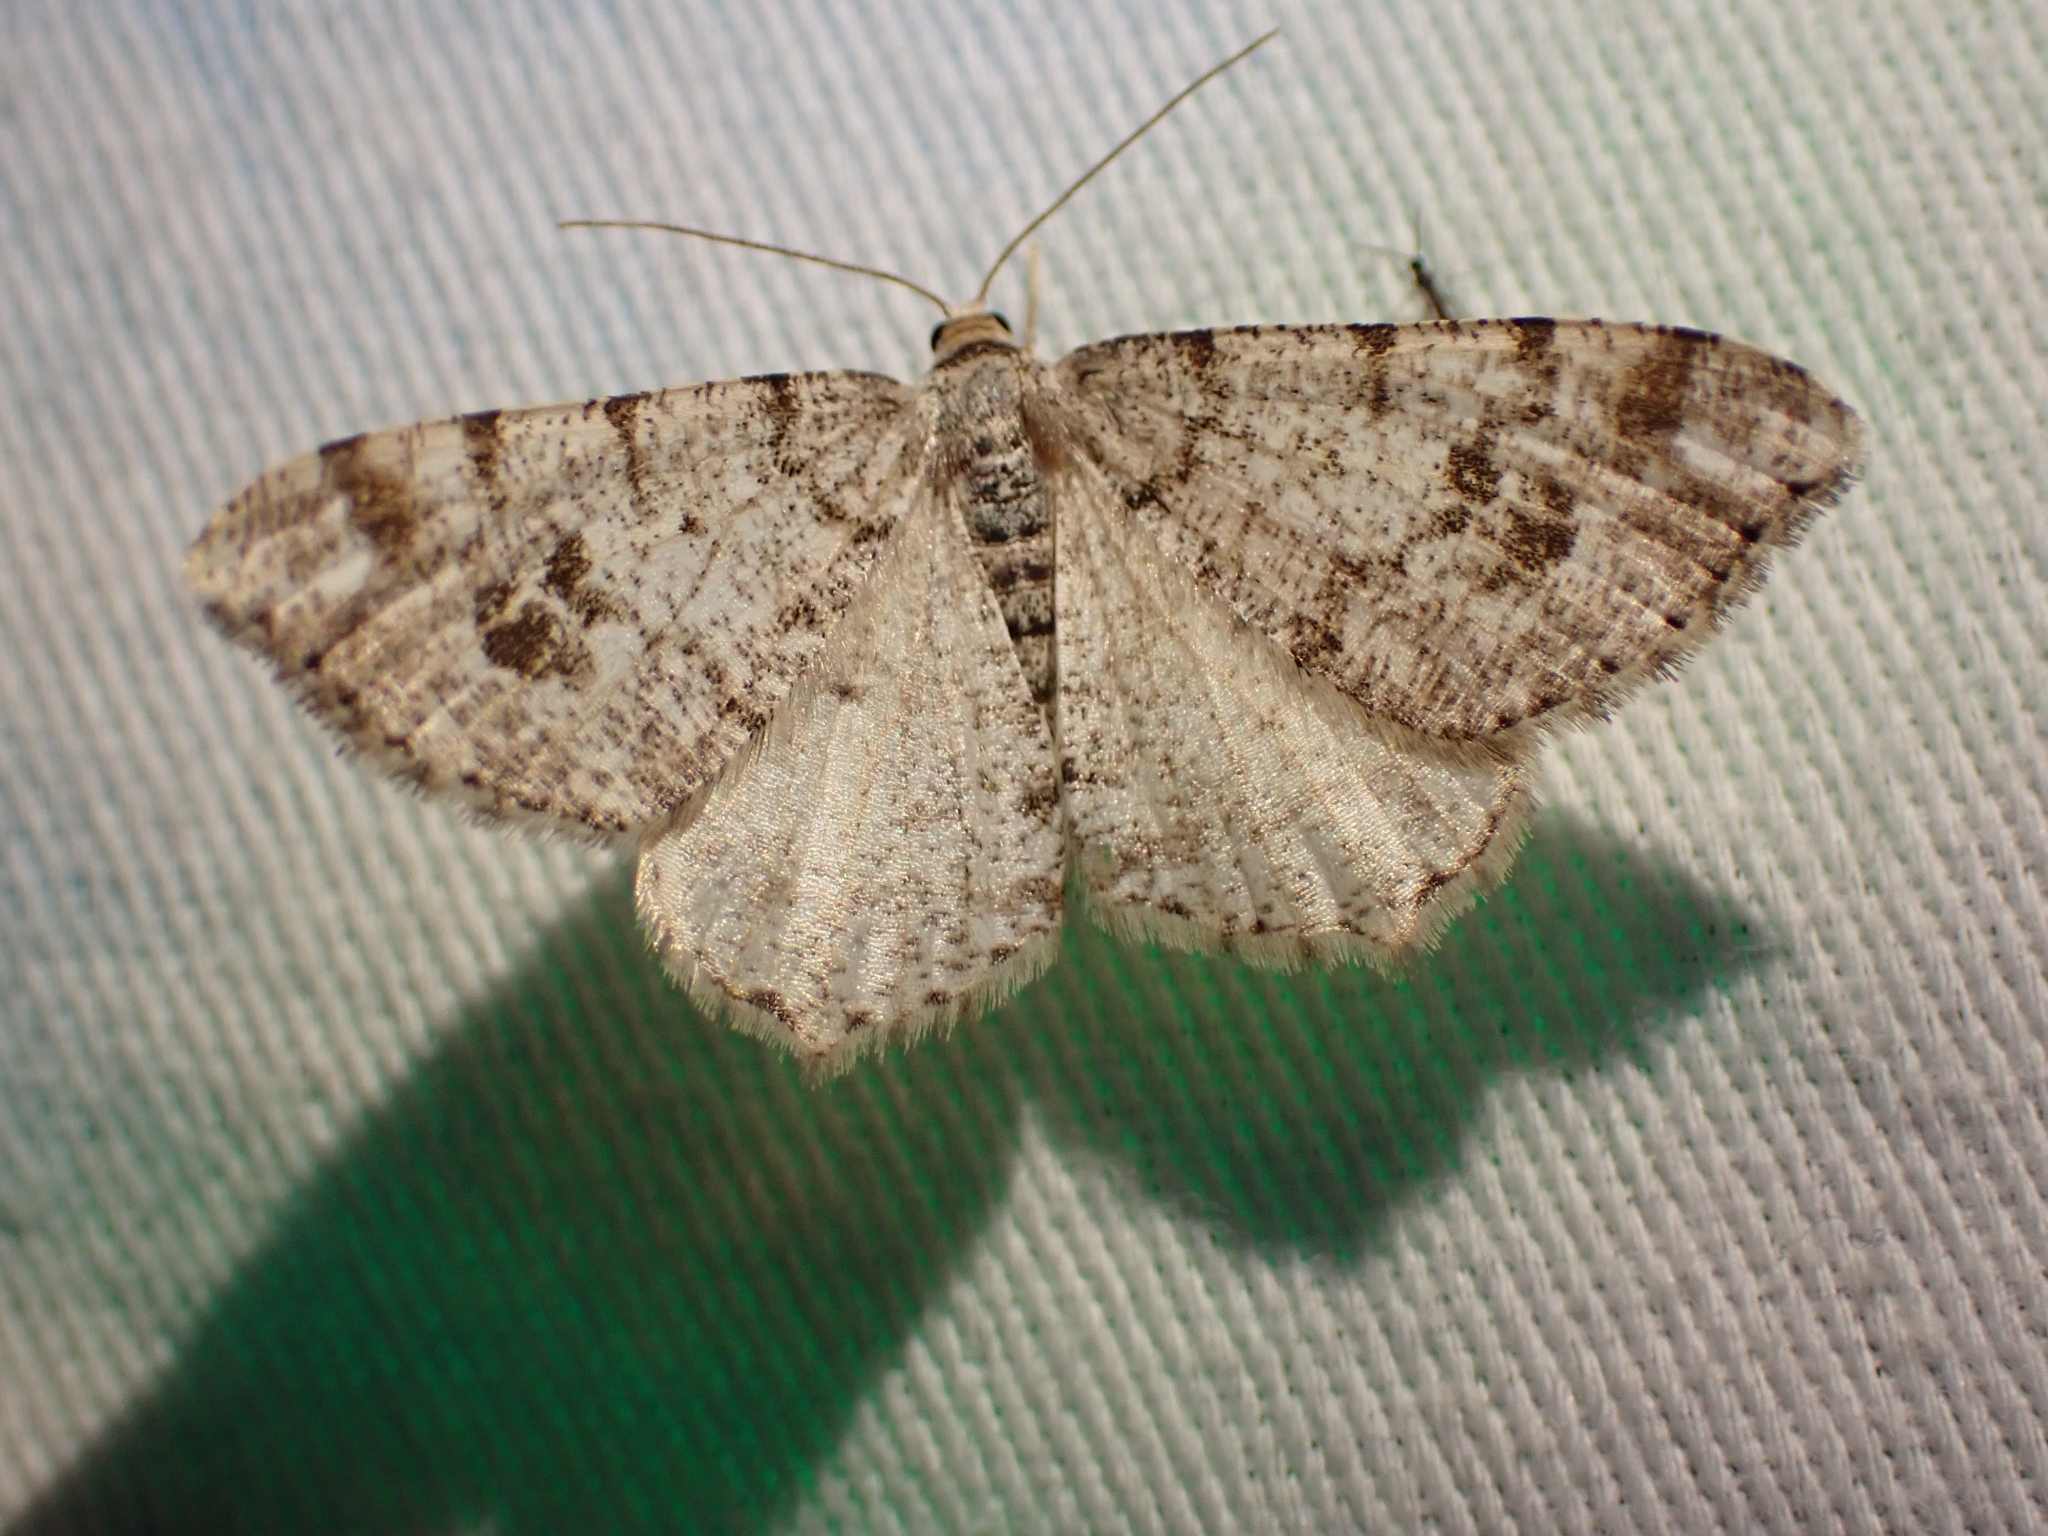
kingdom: Animalia
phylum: Arthropoda
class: Insecta
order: Lepidoptera
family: Geometridae
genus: Macaria
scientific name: Macaria signaria
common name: Dusky peacock
